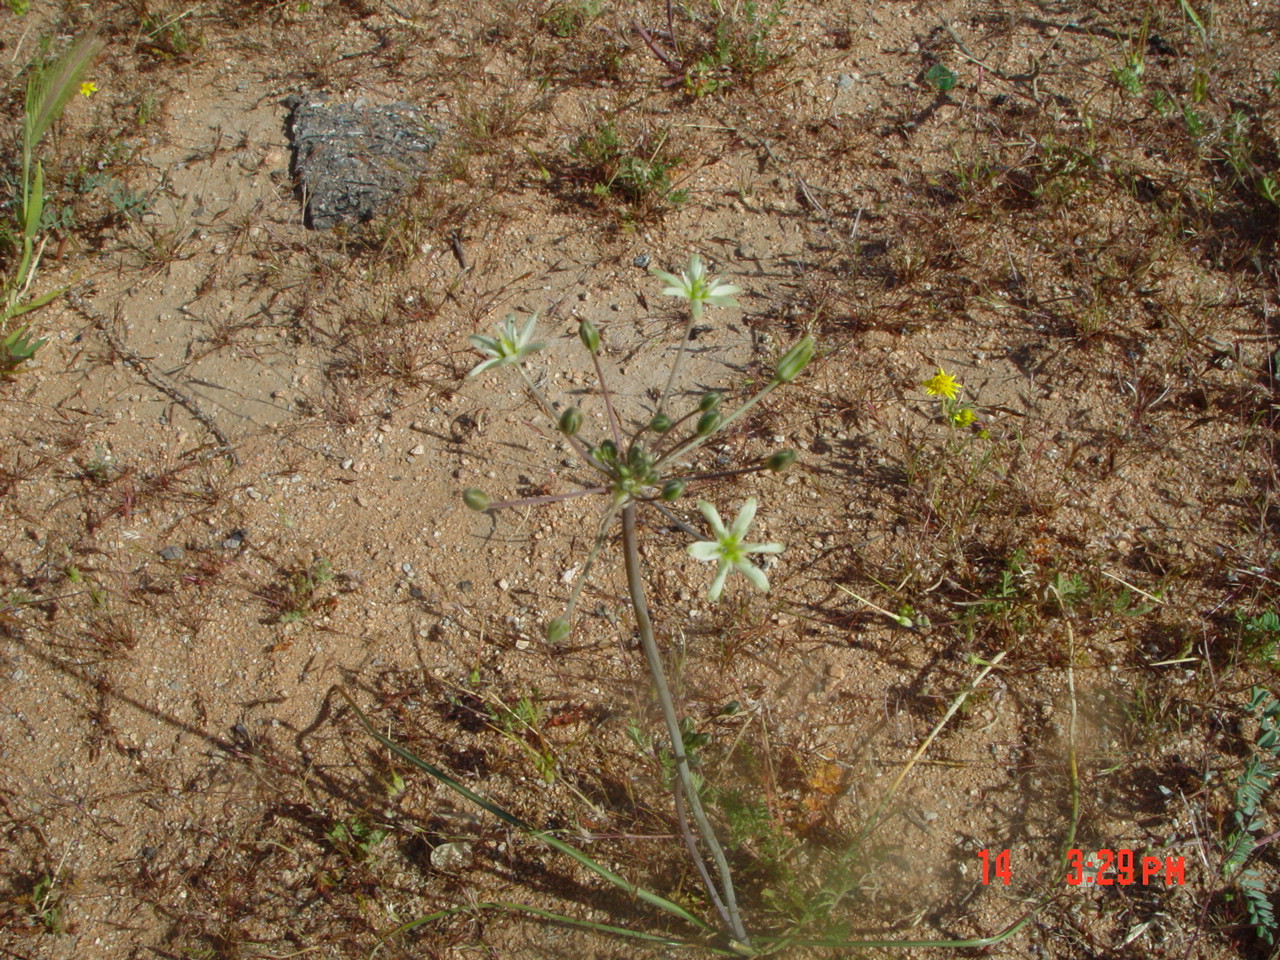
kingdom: Plantae
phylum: Tracheophyta
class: Liliopsida
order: Asparagales
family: Asparagaceae
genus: Muilla
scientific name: Muilla maritima
